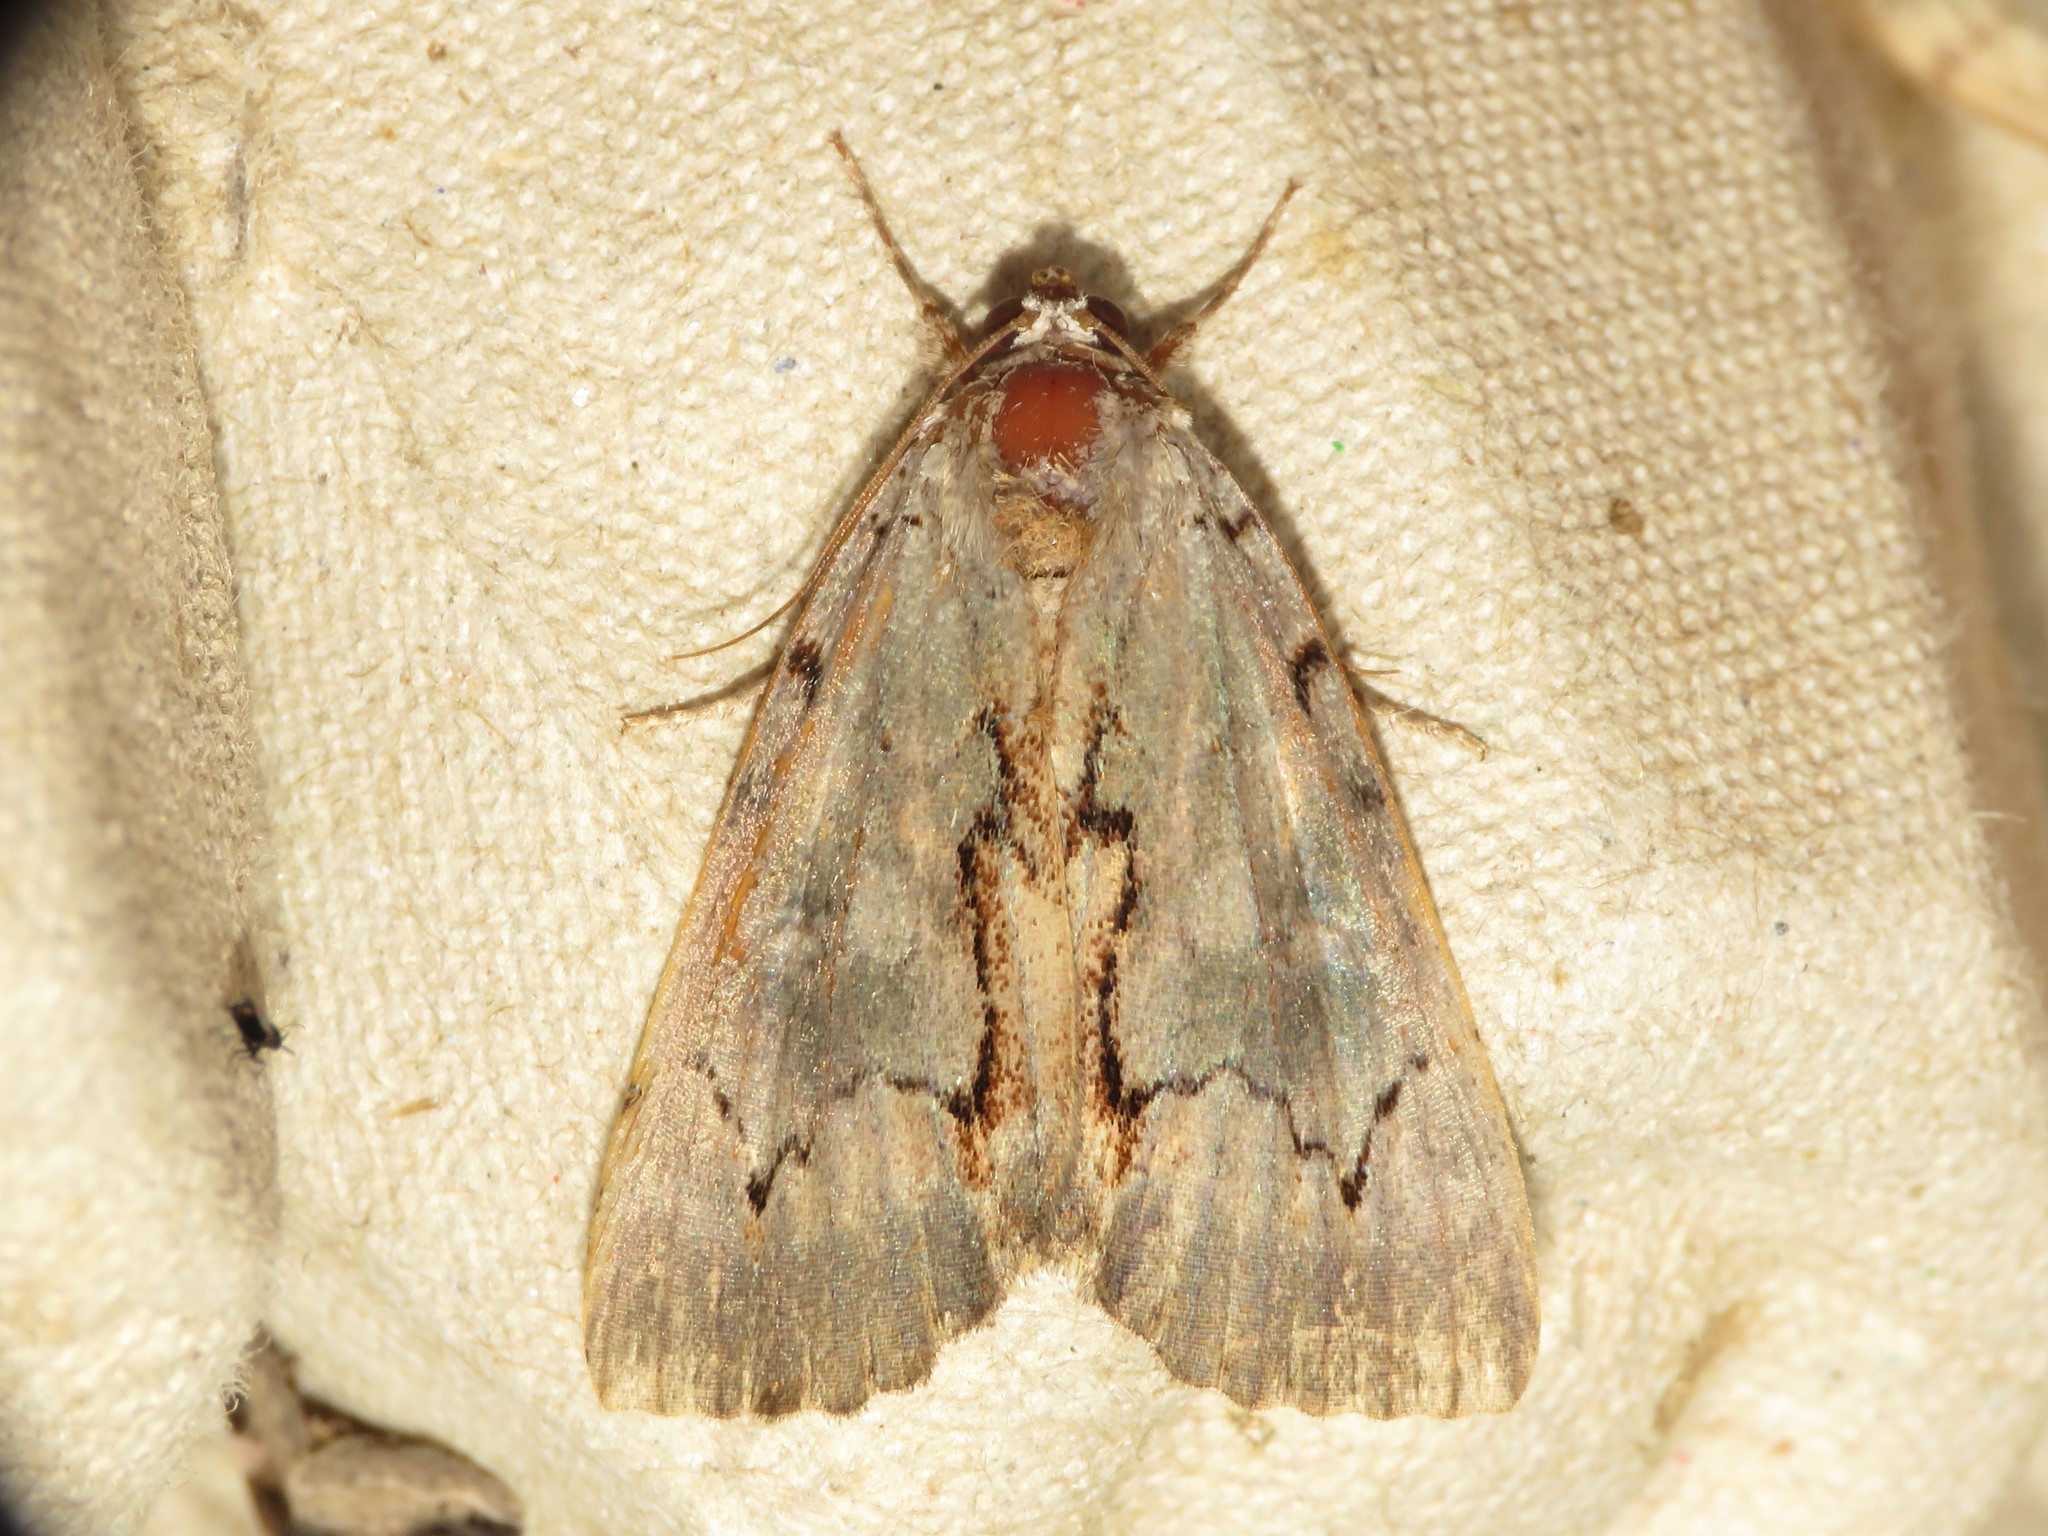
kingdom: Animalia
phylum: Arthropoda
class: Insecta
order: Lepidoptera
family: Erebidae
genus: Catocala
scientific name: Catocala grynea
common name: Woody underwing
